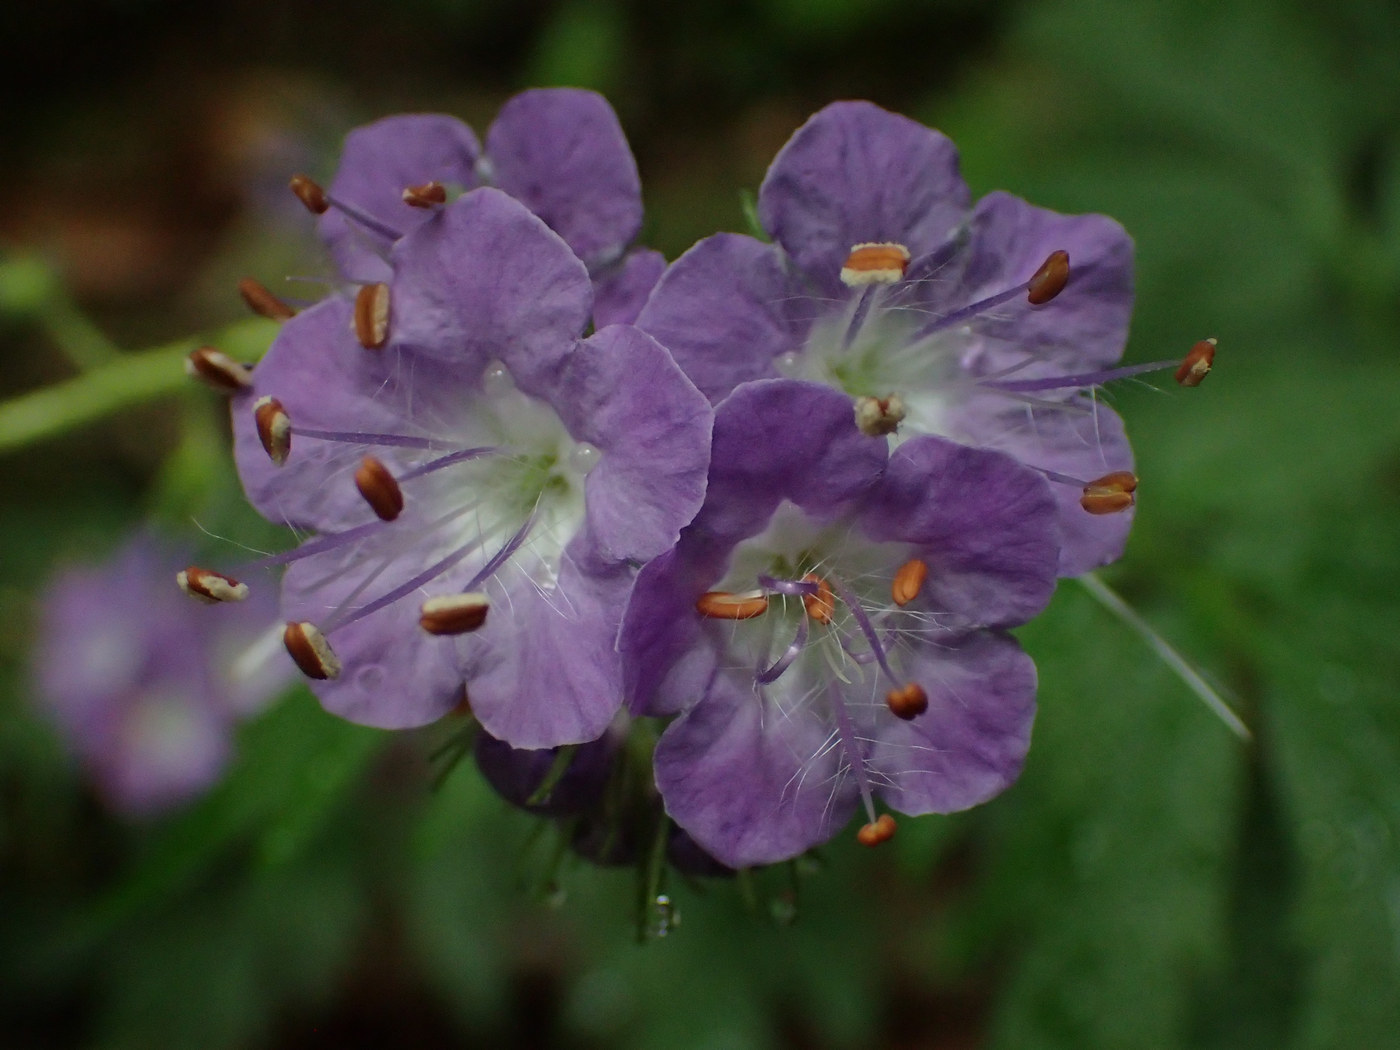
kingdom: Plantae
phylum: Tracheophyta
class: Magnoliopsida
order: Boraginales
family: Hydrophyllaceae
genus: Phacelia
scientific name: Phacelia bipinnatifida
